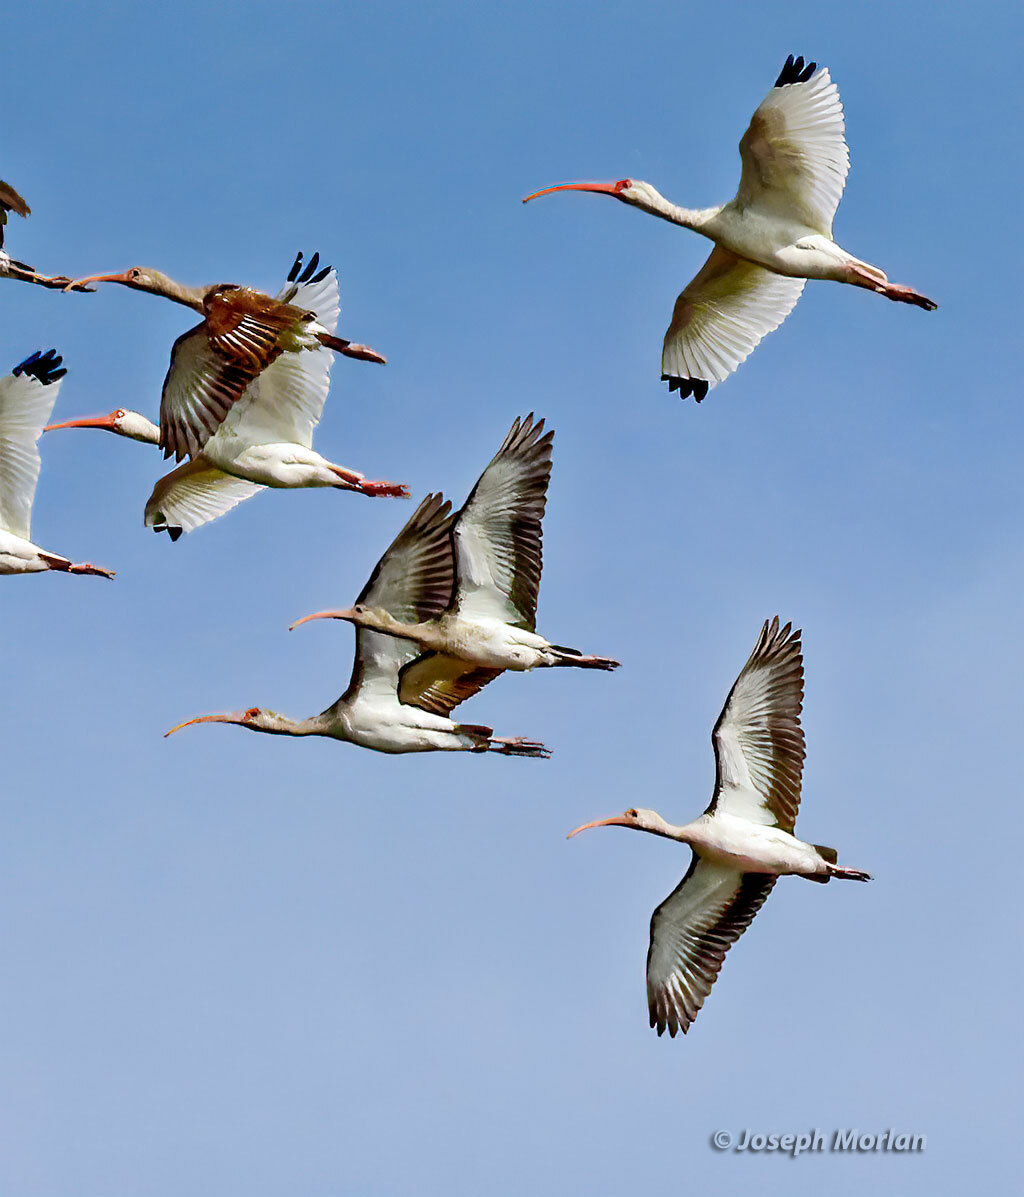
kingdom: Animalia
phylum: Chordata
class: Aves
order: Pelecaniformes
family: Threskiornithidae
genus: Eudocimus
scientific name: Eudocimus albus
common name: White ibis
